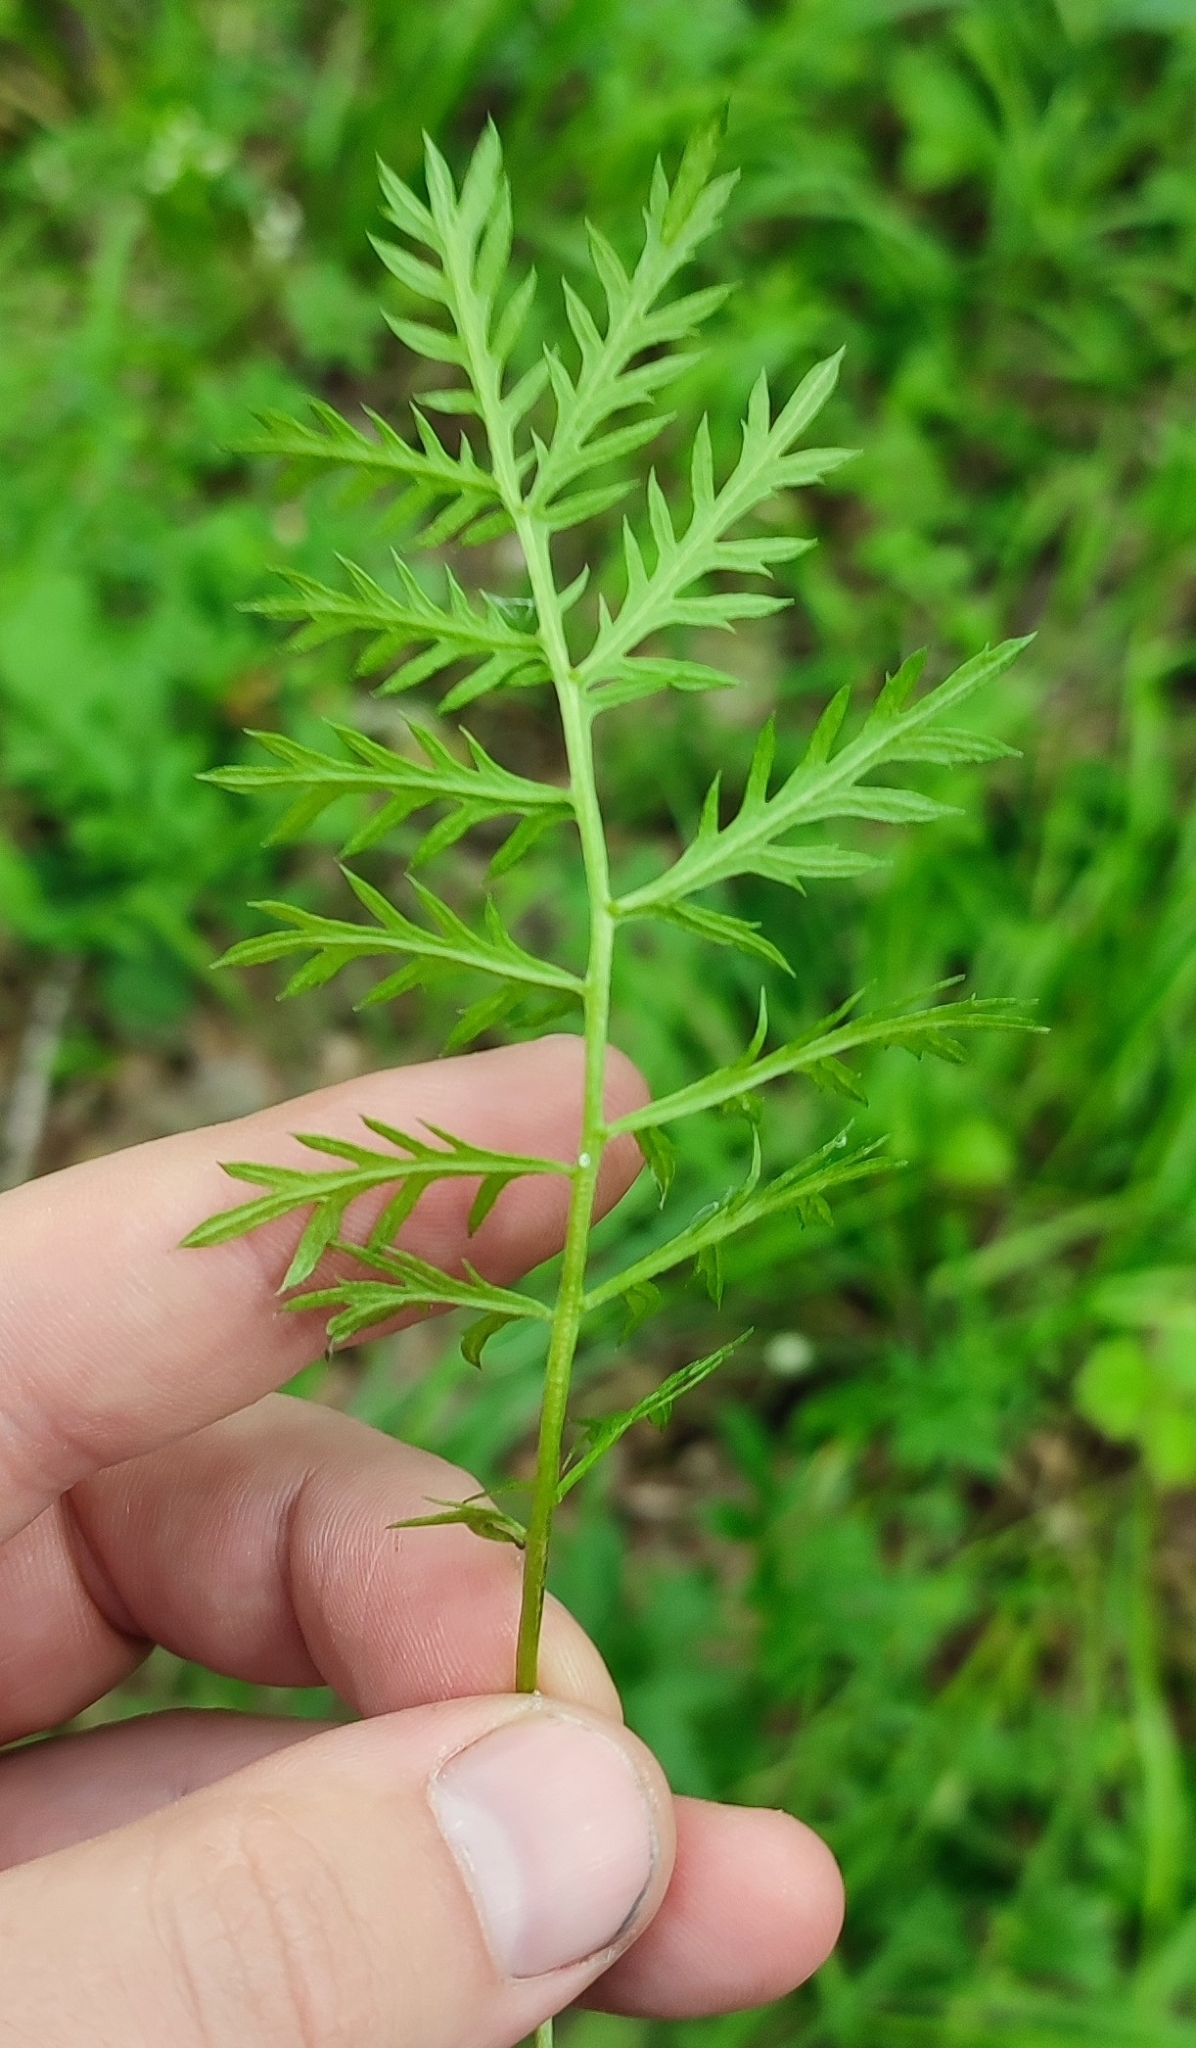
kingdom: Plantae
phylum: Tracheophyta
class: Magnoliopsida
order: Asterales
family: Asteraceae
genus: Artemisia
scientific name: Artemisia latifolia
